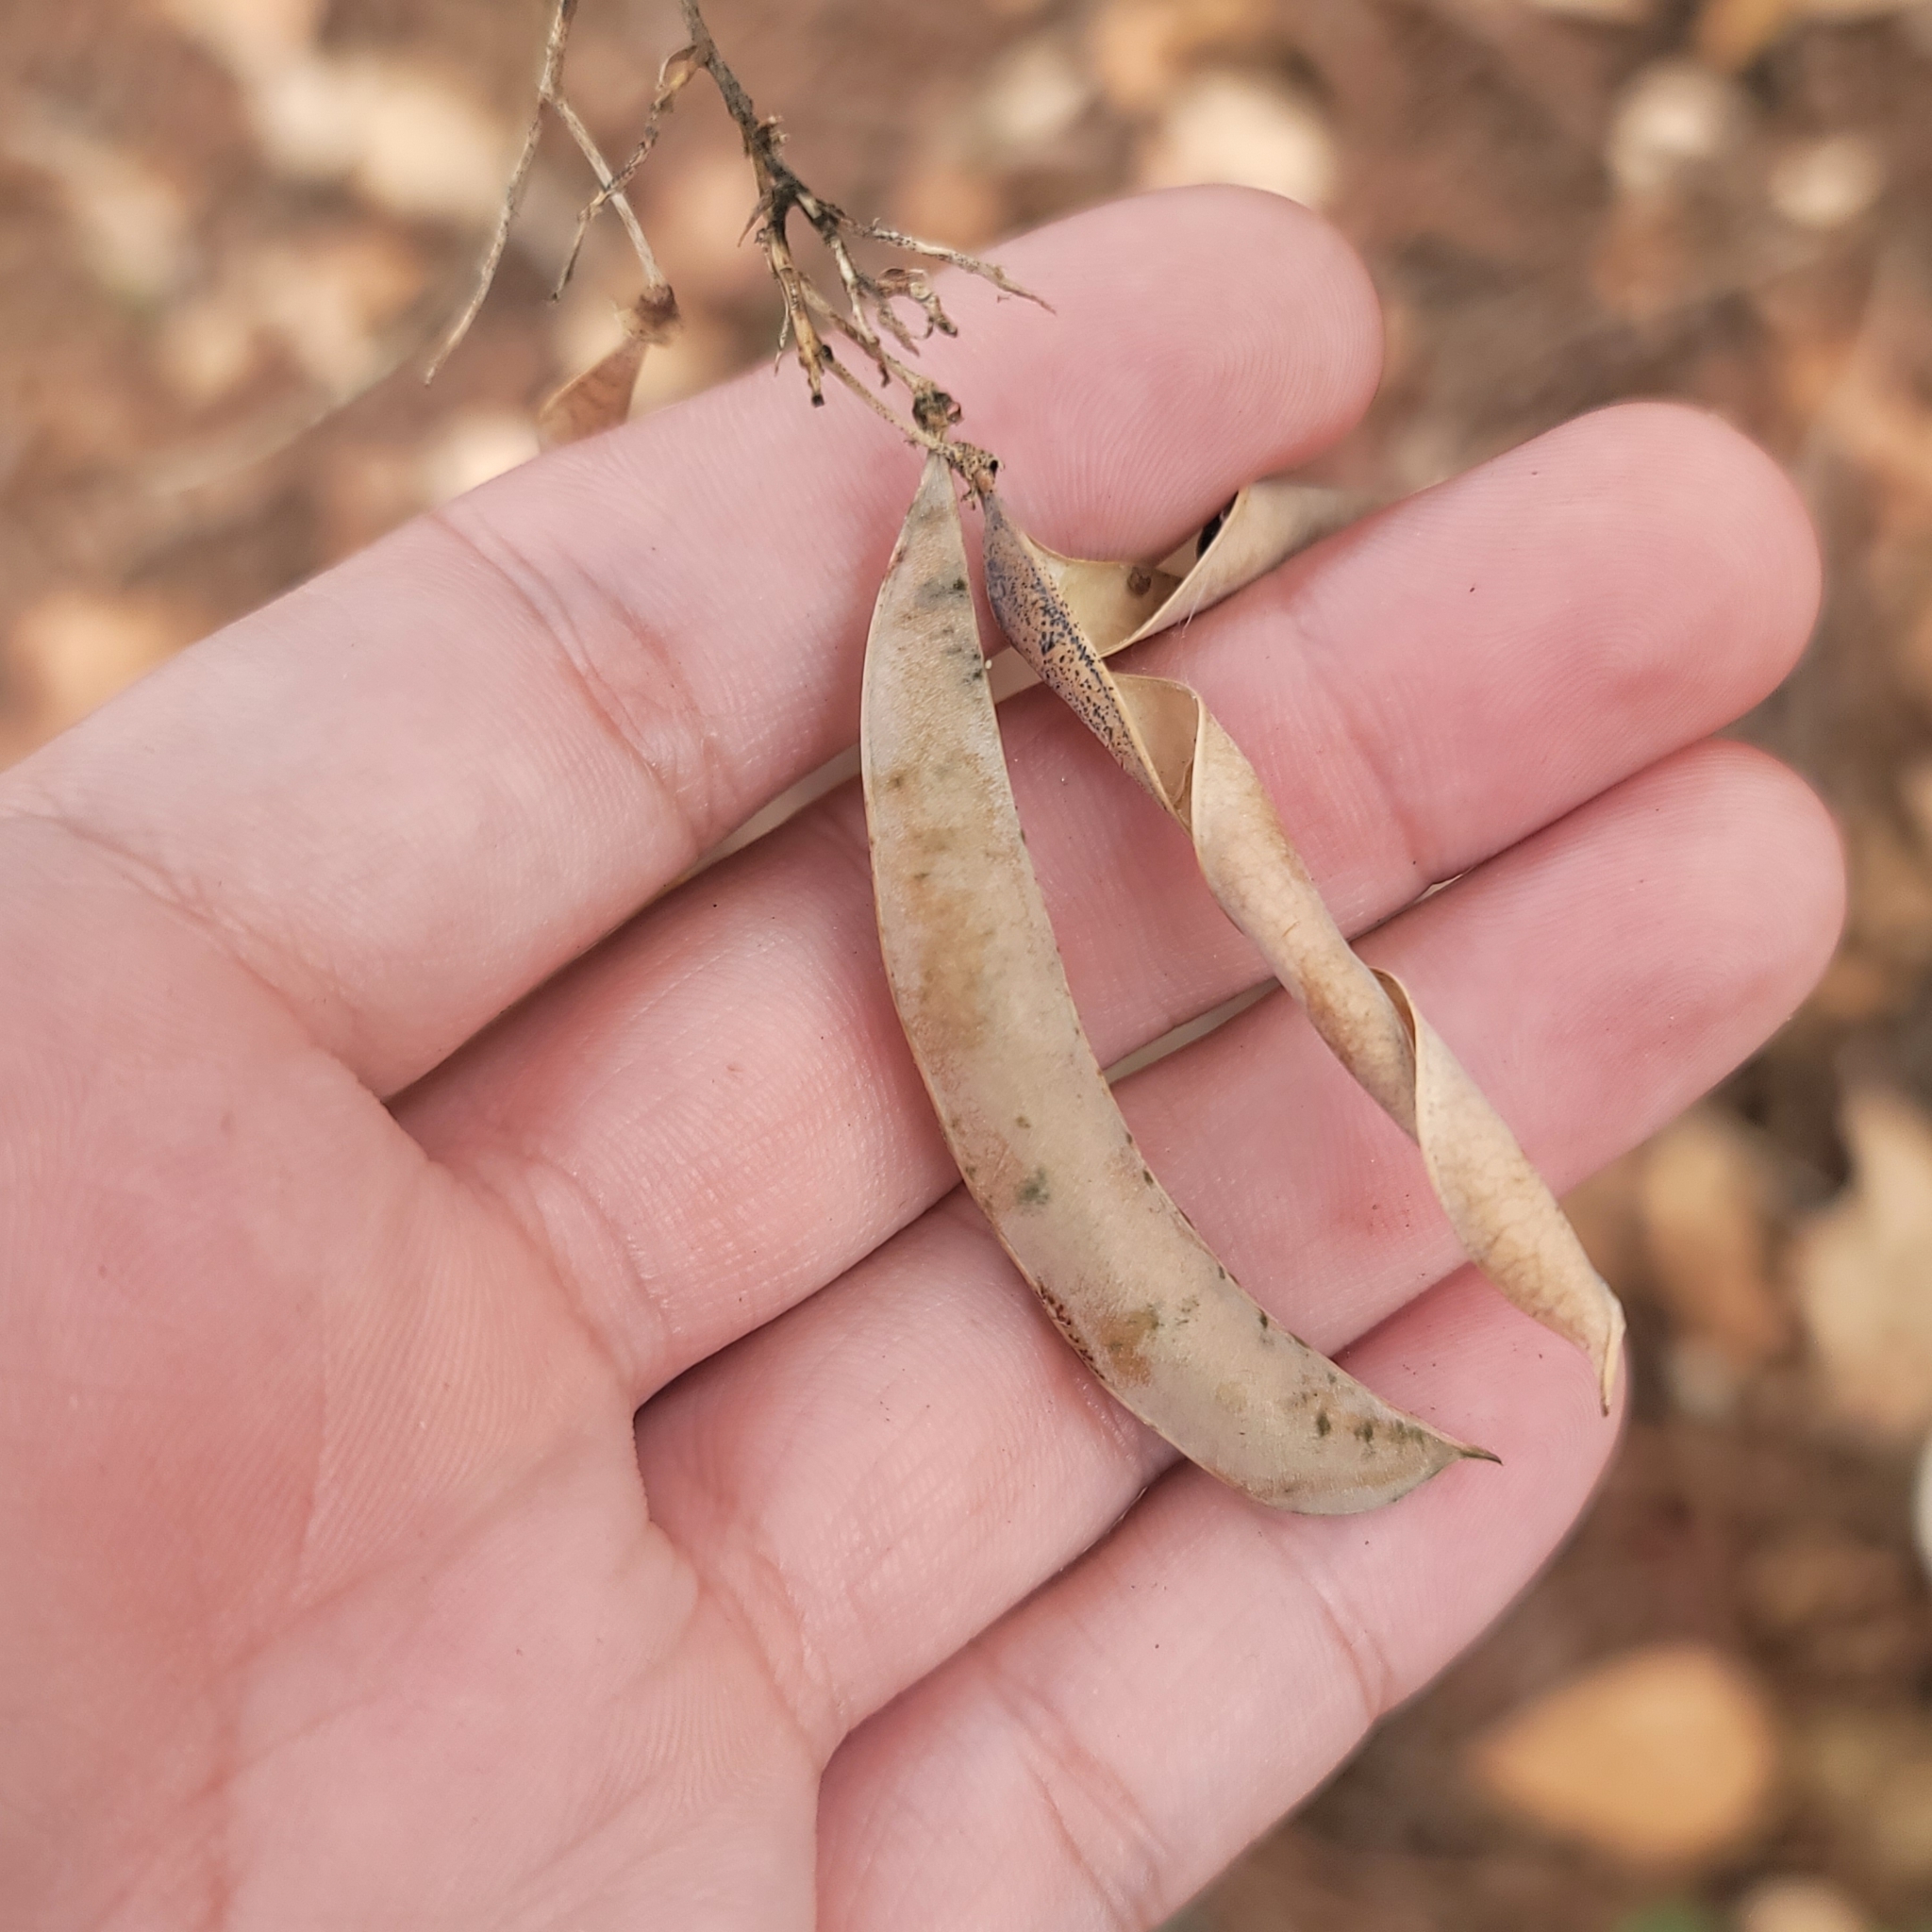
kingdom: Plantae
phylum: Tracheophyta
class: Magnoliopsida
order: Fabales
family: Fabaceae
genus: Phaseolus
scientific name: Phaseolus polystachios
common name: Thicket bean
